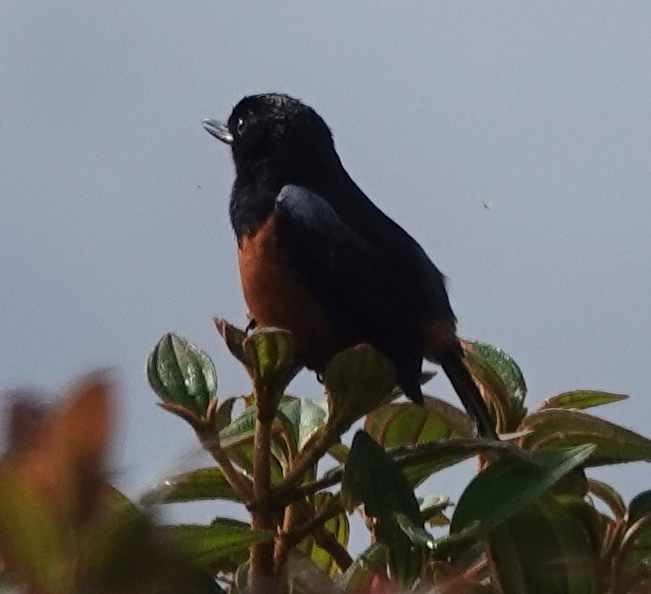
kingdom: Animalia
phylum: Chordata
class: Aves
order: Passeriformes
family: Thraupidae
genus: Diglossa
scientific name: Diglossa gloriosissima
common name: Chestnut-bellied flowerpiercer
